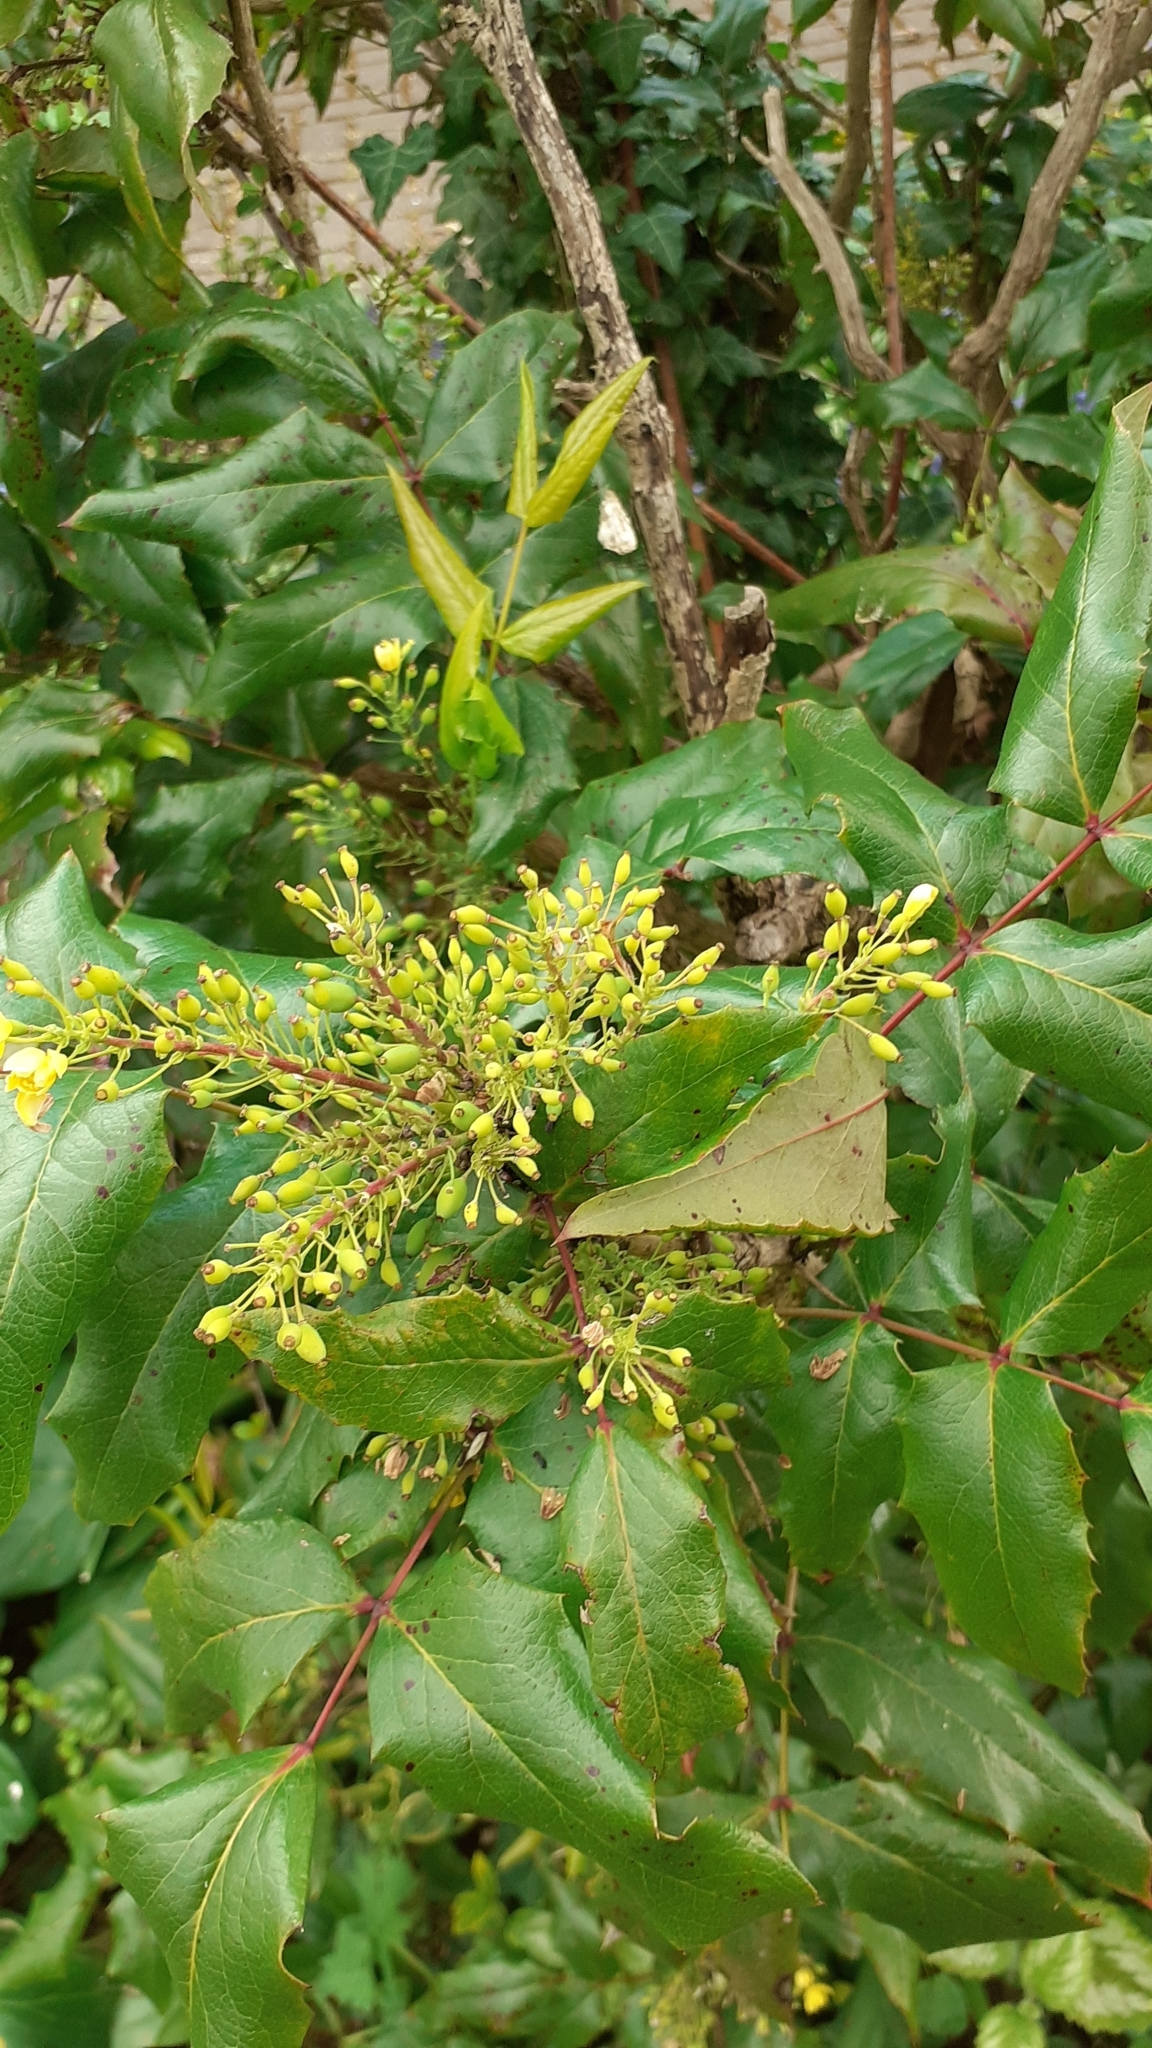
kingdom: Plantae
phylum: Tracheophyta
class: Magnoliopsida
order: Ranunculales
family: Berberidaceae
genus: Mahonia
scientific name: Mahonia aquifolium
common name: Oregon-grape
